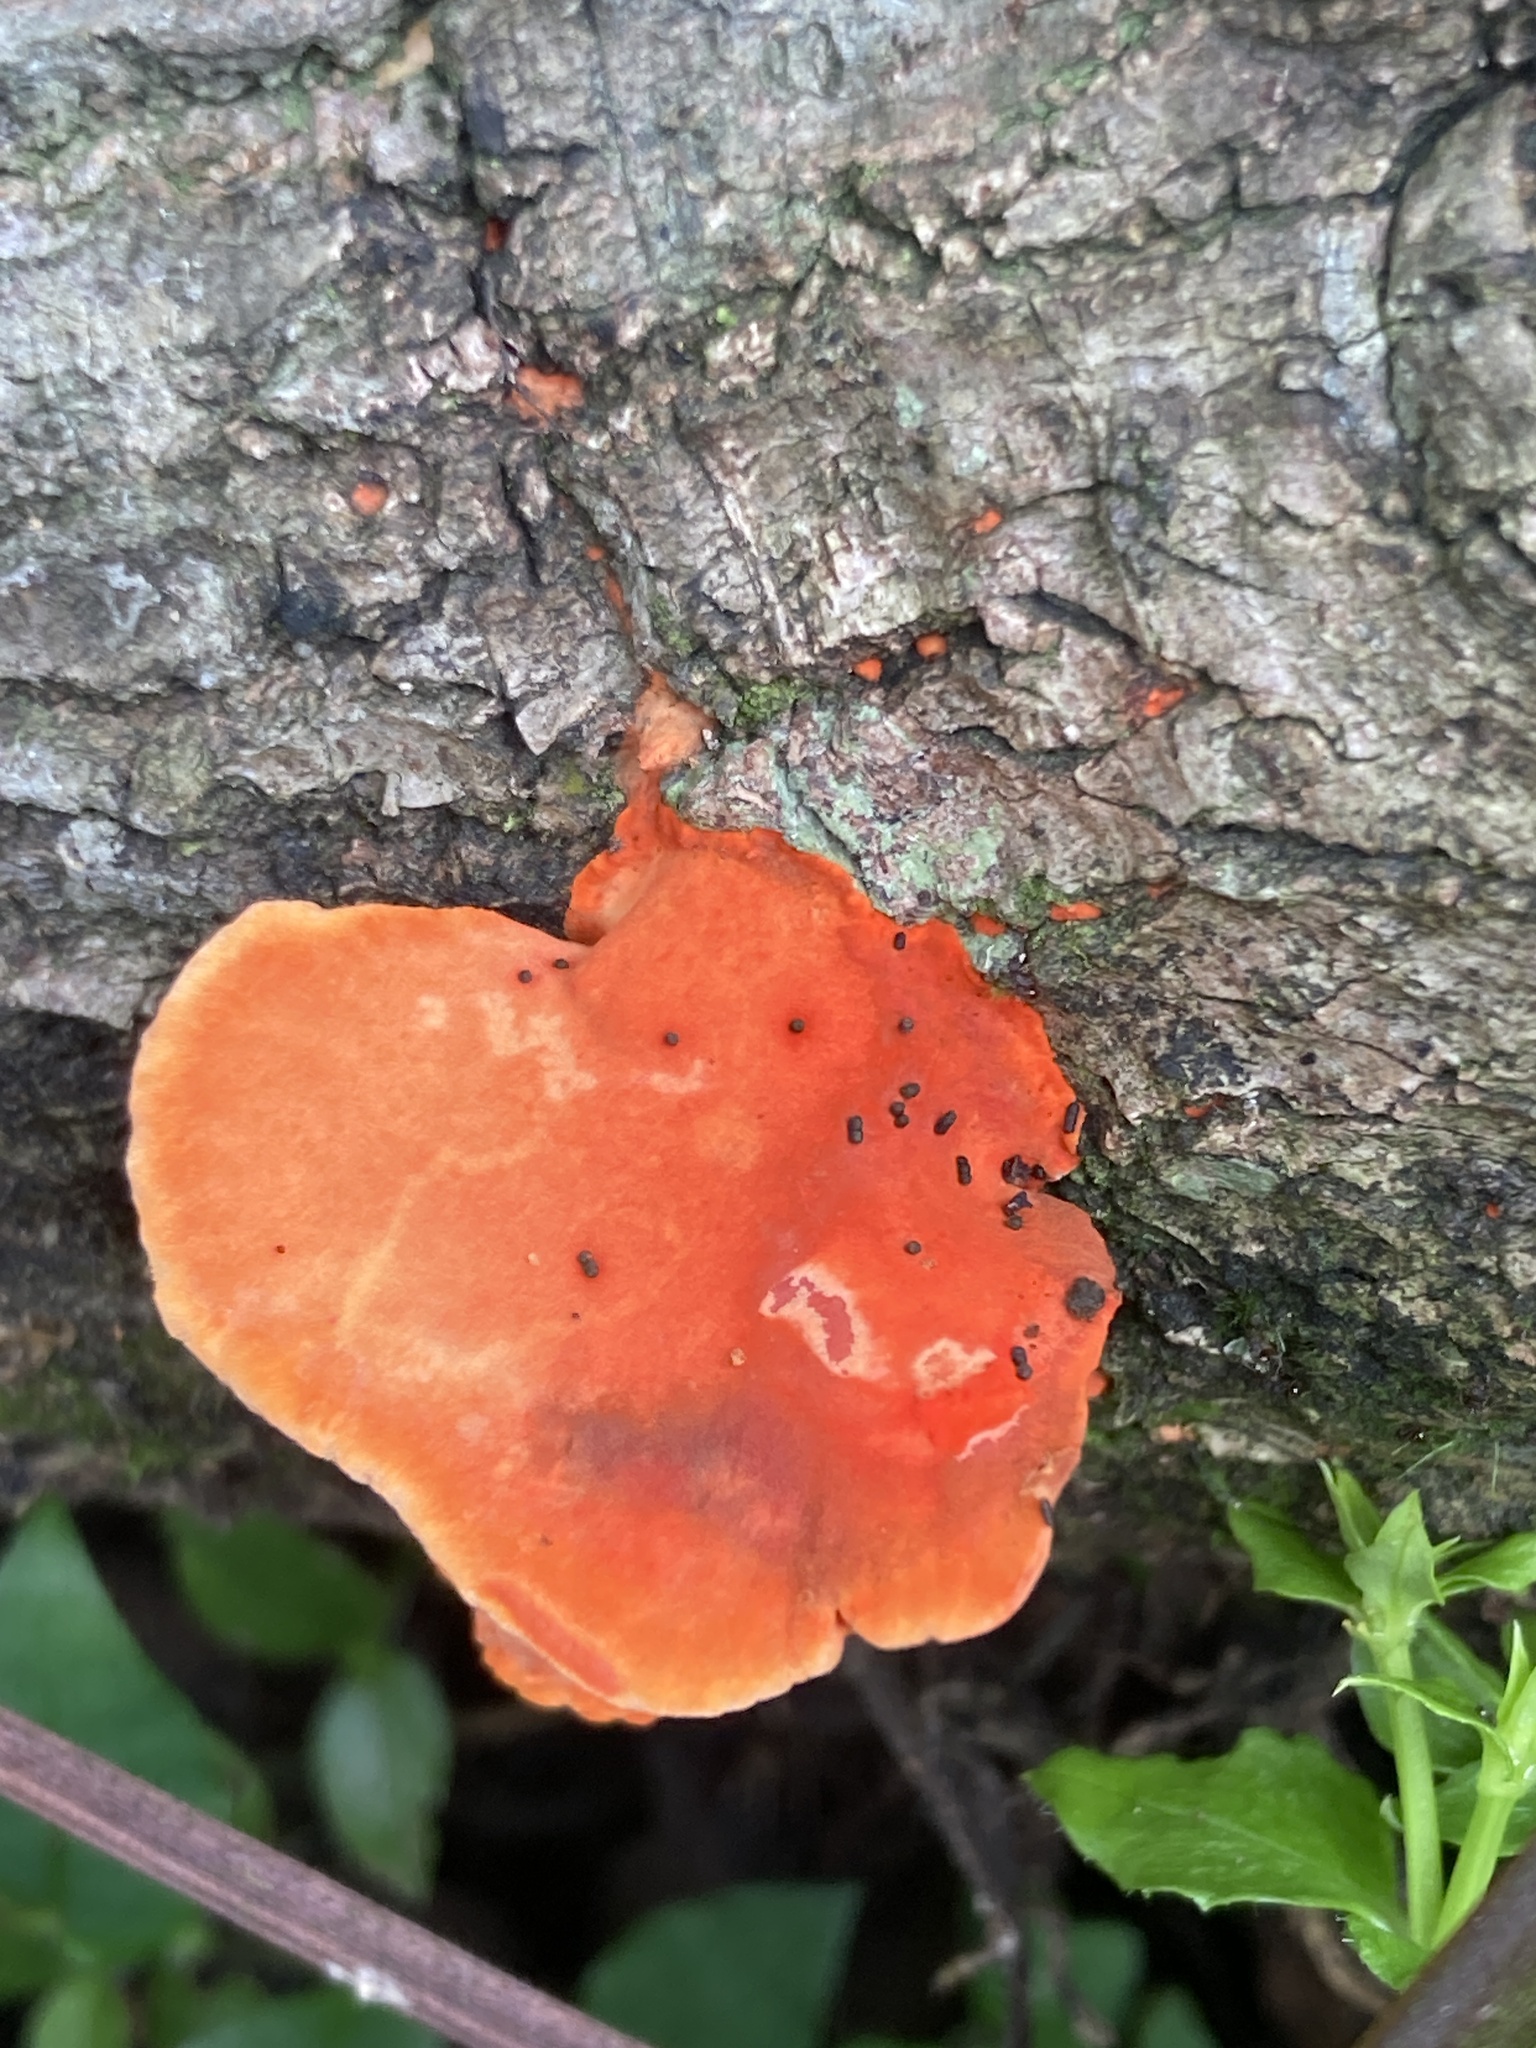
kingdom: Fungi
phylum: Basidiomycota
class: Agaricomycetes
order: Polyporales
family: Polyporaceae
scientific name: Polyporaceae
